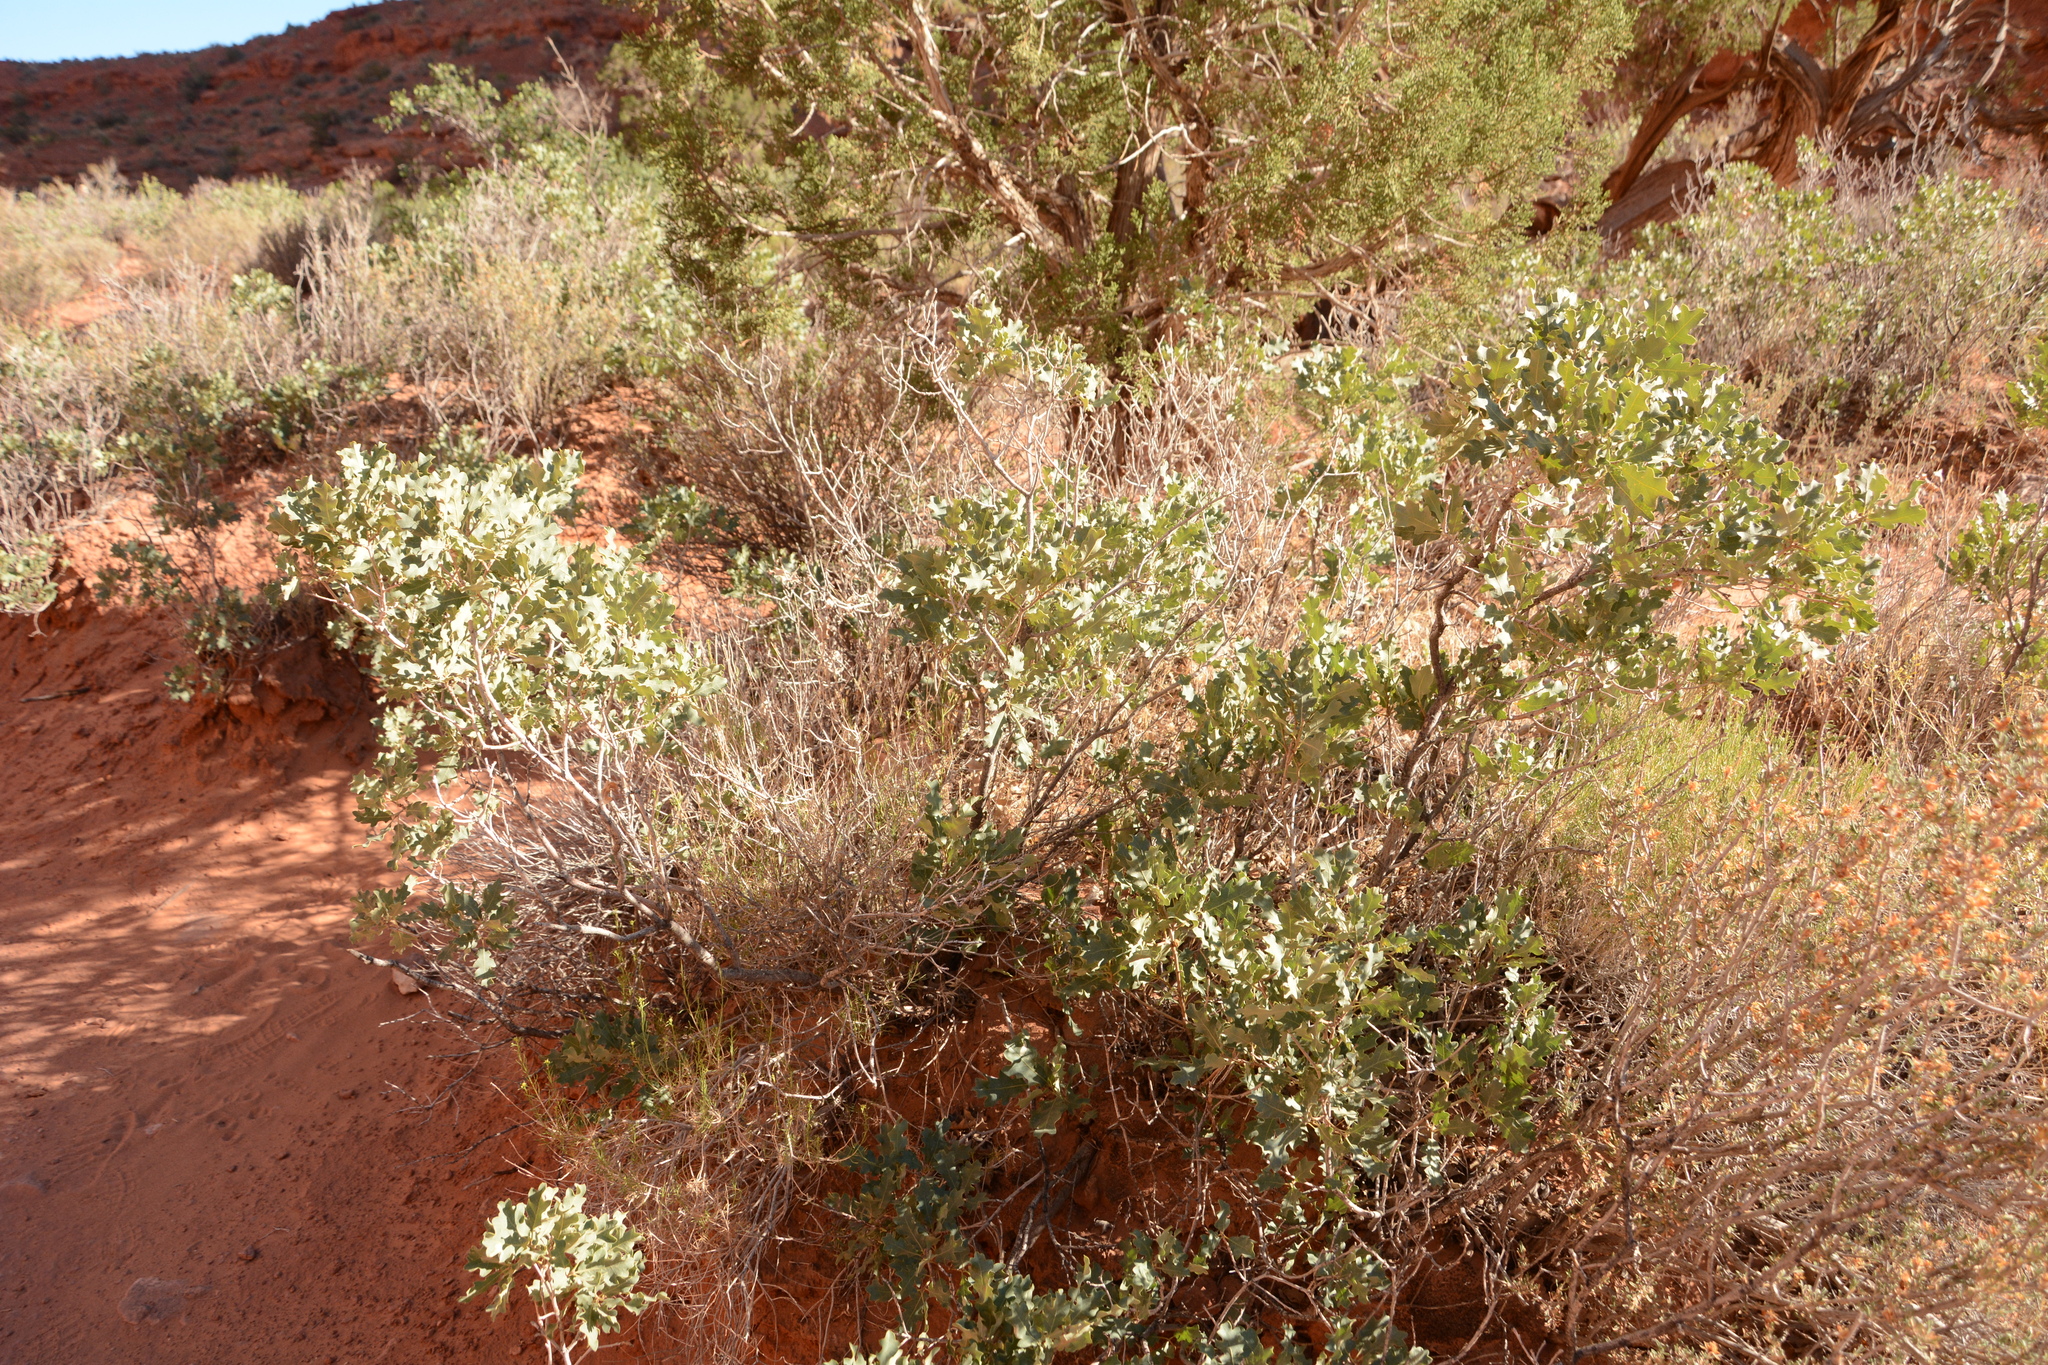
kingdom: Plantae
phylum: Tracheophyta
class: Magnoliopsida
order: Fagales
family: Fagaceae
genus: Quercus
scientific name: Quercus welshii
